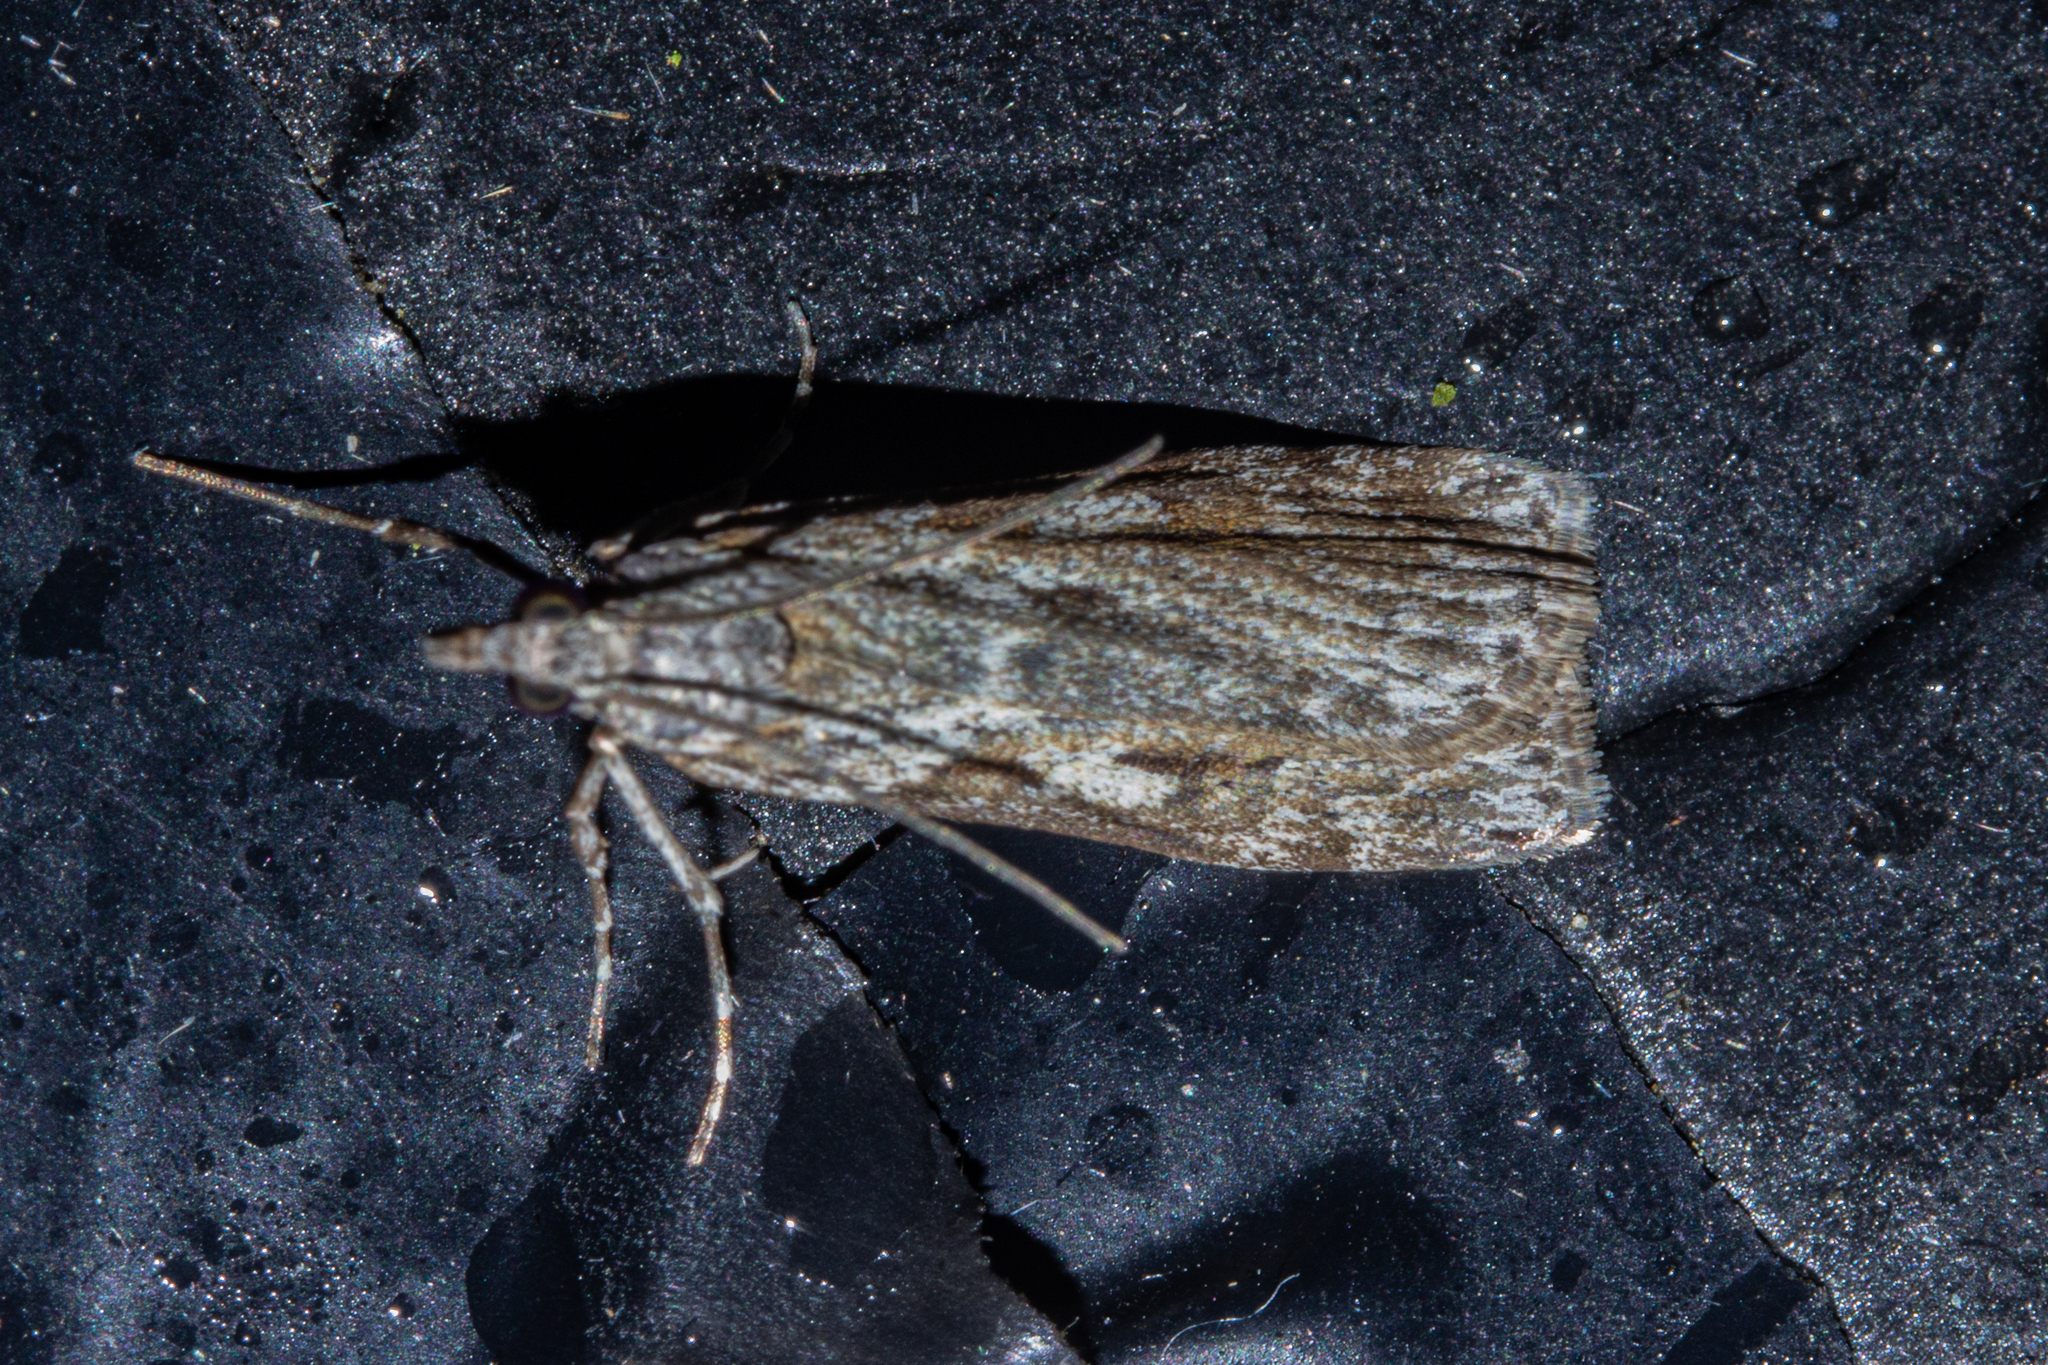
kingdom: Animalia
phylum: Arthropoda
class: Insecta
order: Lepidoptera
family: Crambidae
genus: Scoparia
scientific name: Scoparia halopis
